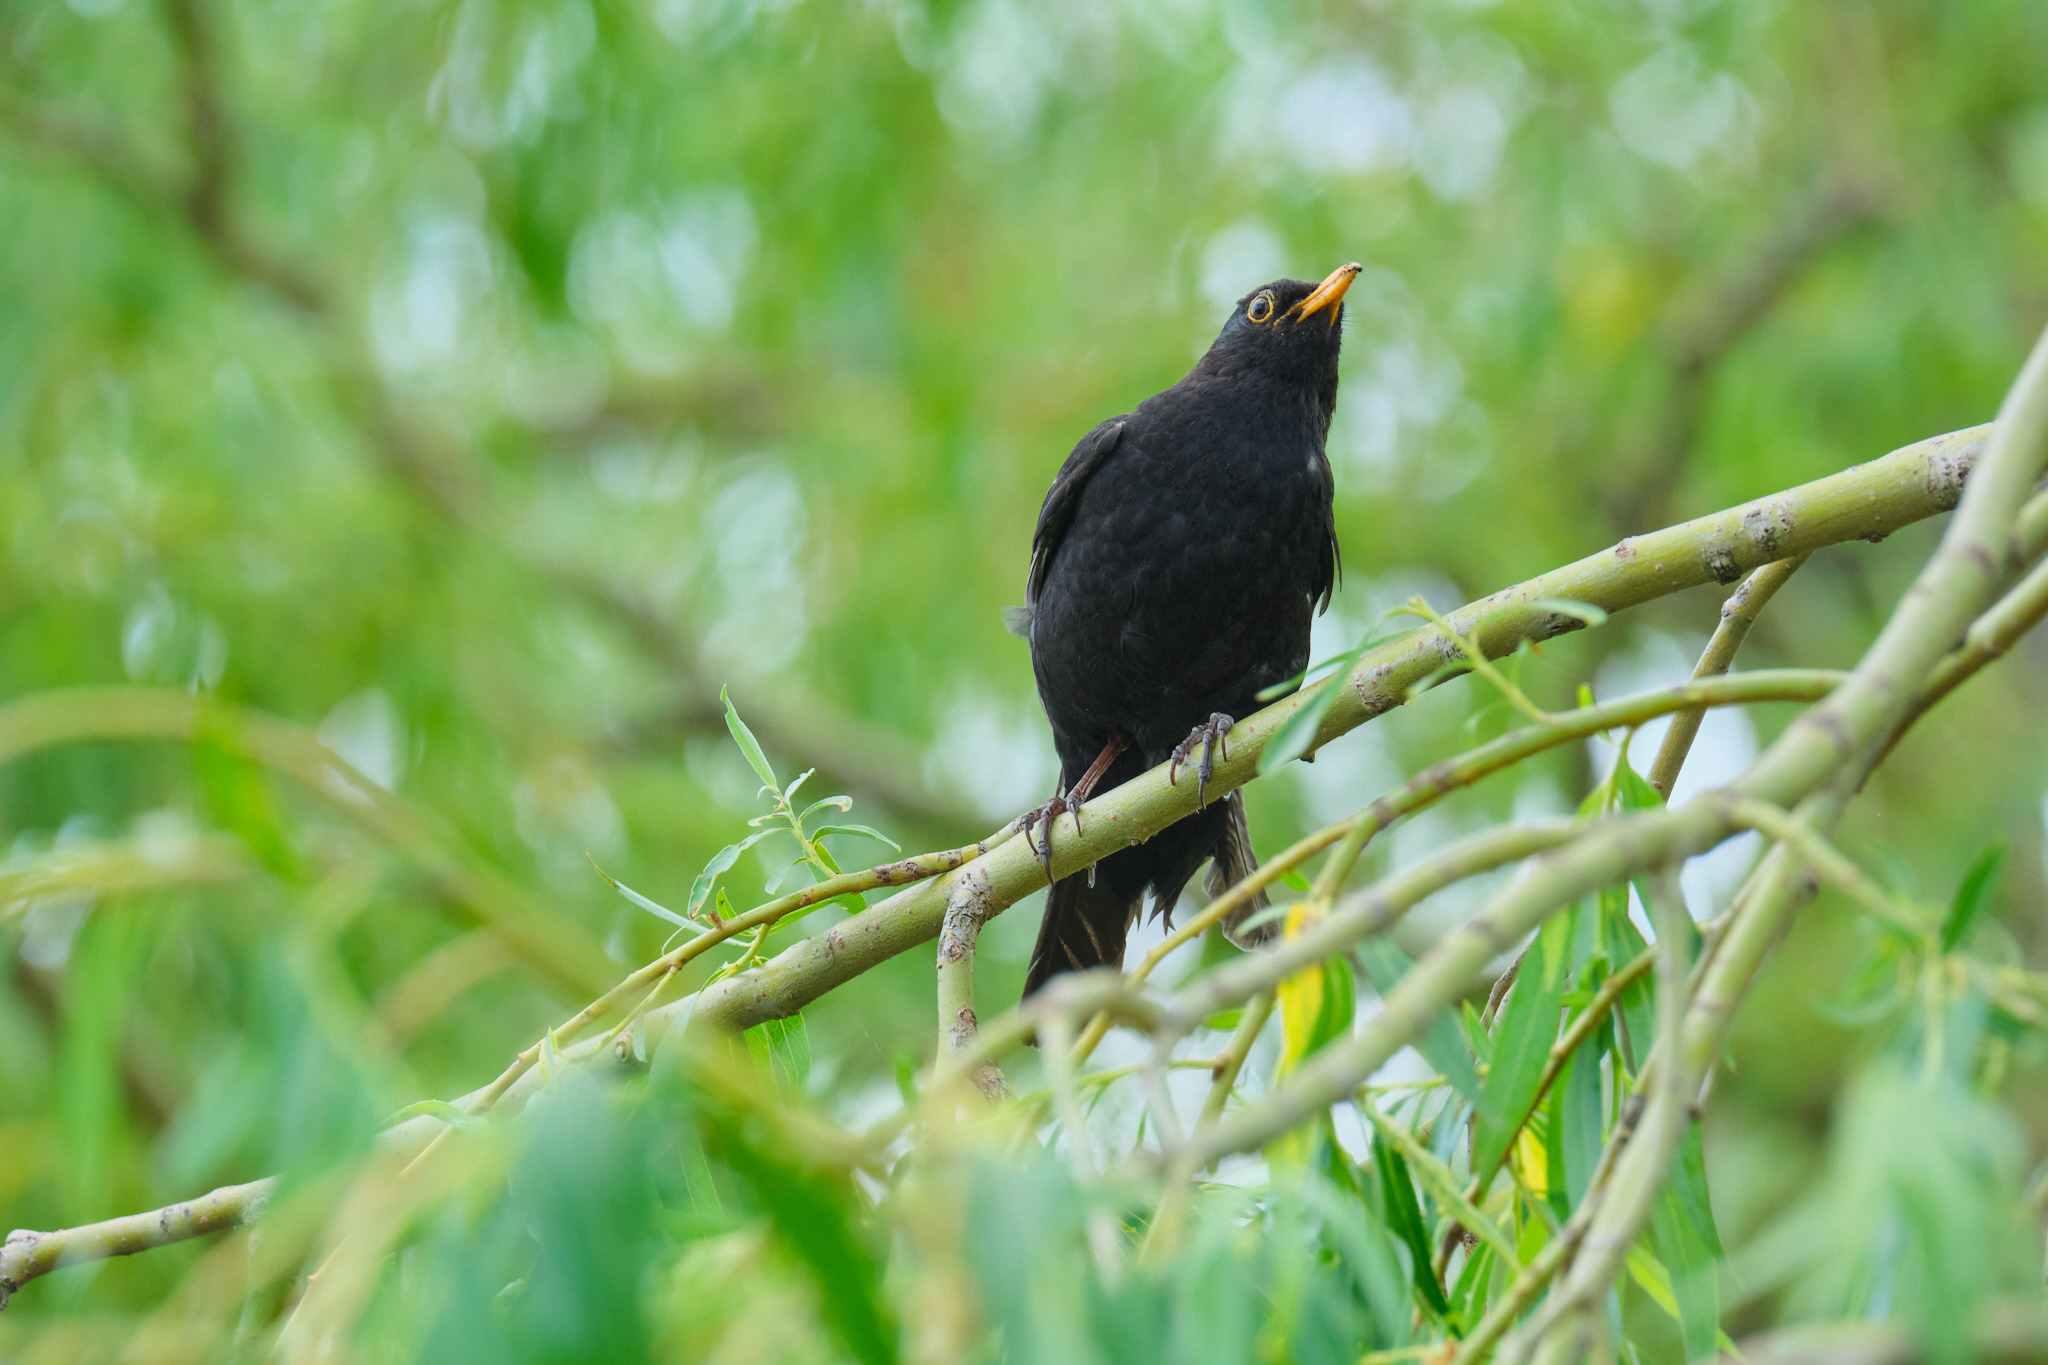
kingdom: Animalia
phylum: Chordata
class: Aves
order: Passeriformes
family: Turdidae
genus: Turdus
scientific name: Turdus merula
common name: Common blackbird
